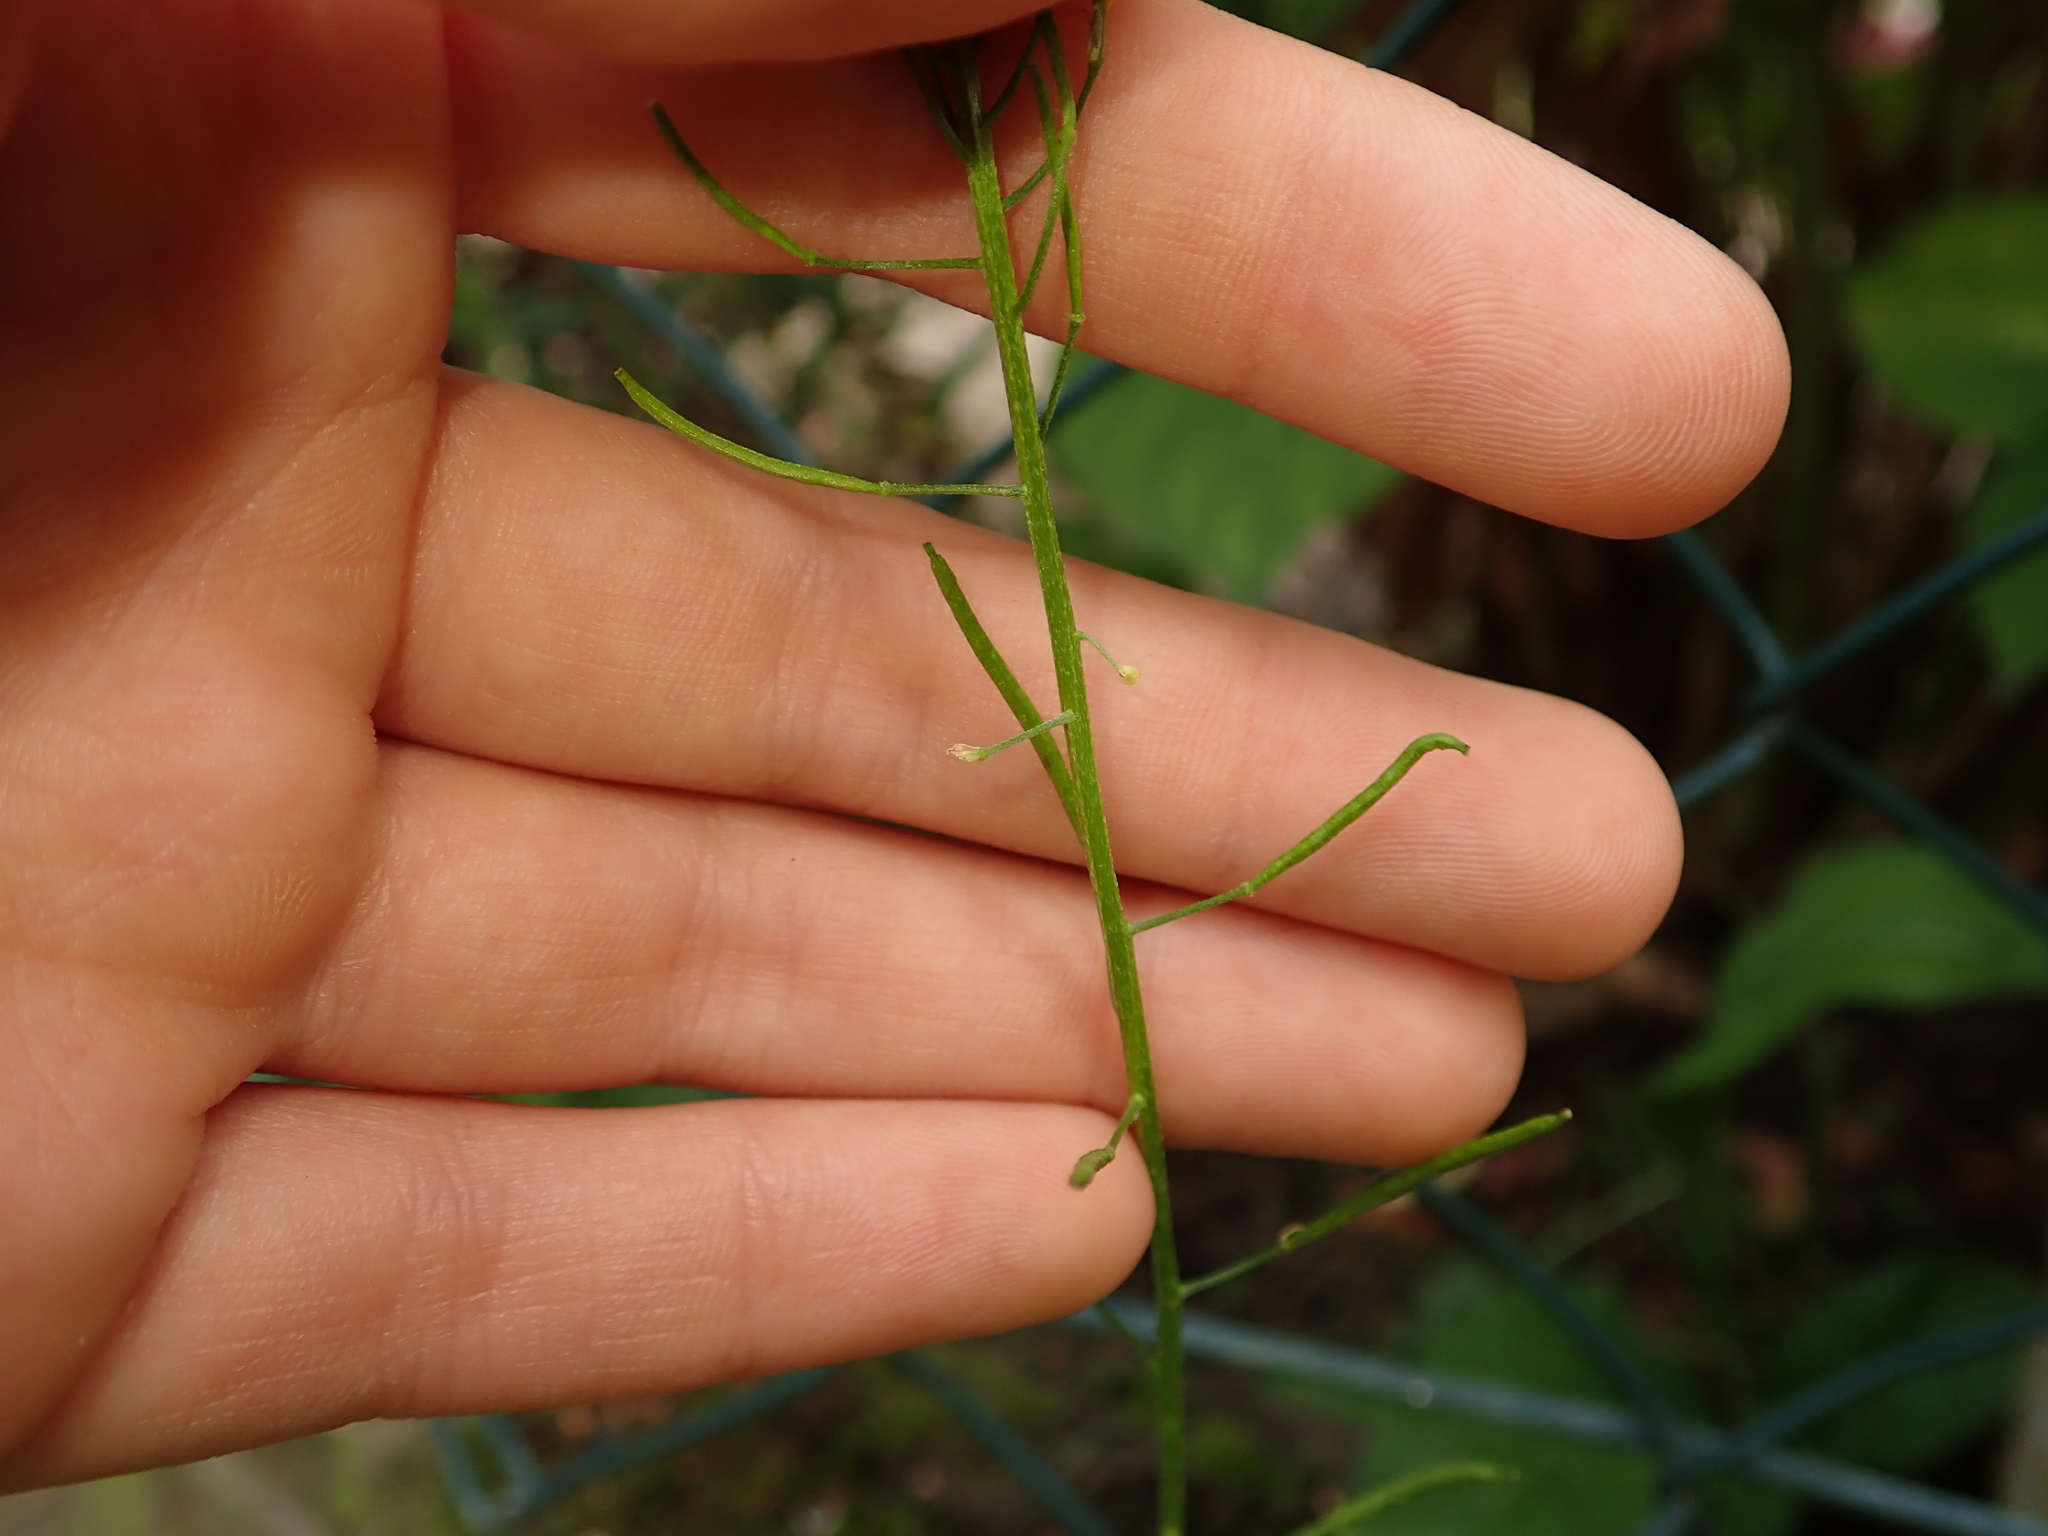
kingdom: Plantae
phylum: Tracheophyta
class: Magnoliopsida
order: Brassicales
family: Brassicaceae
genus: Erysimum
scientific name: Erysimum cheiranthoides
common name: Treacle mustard
